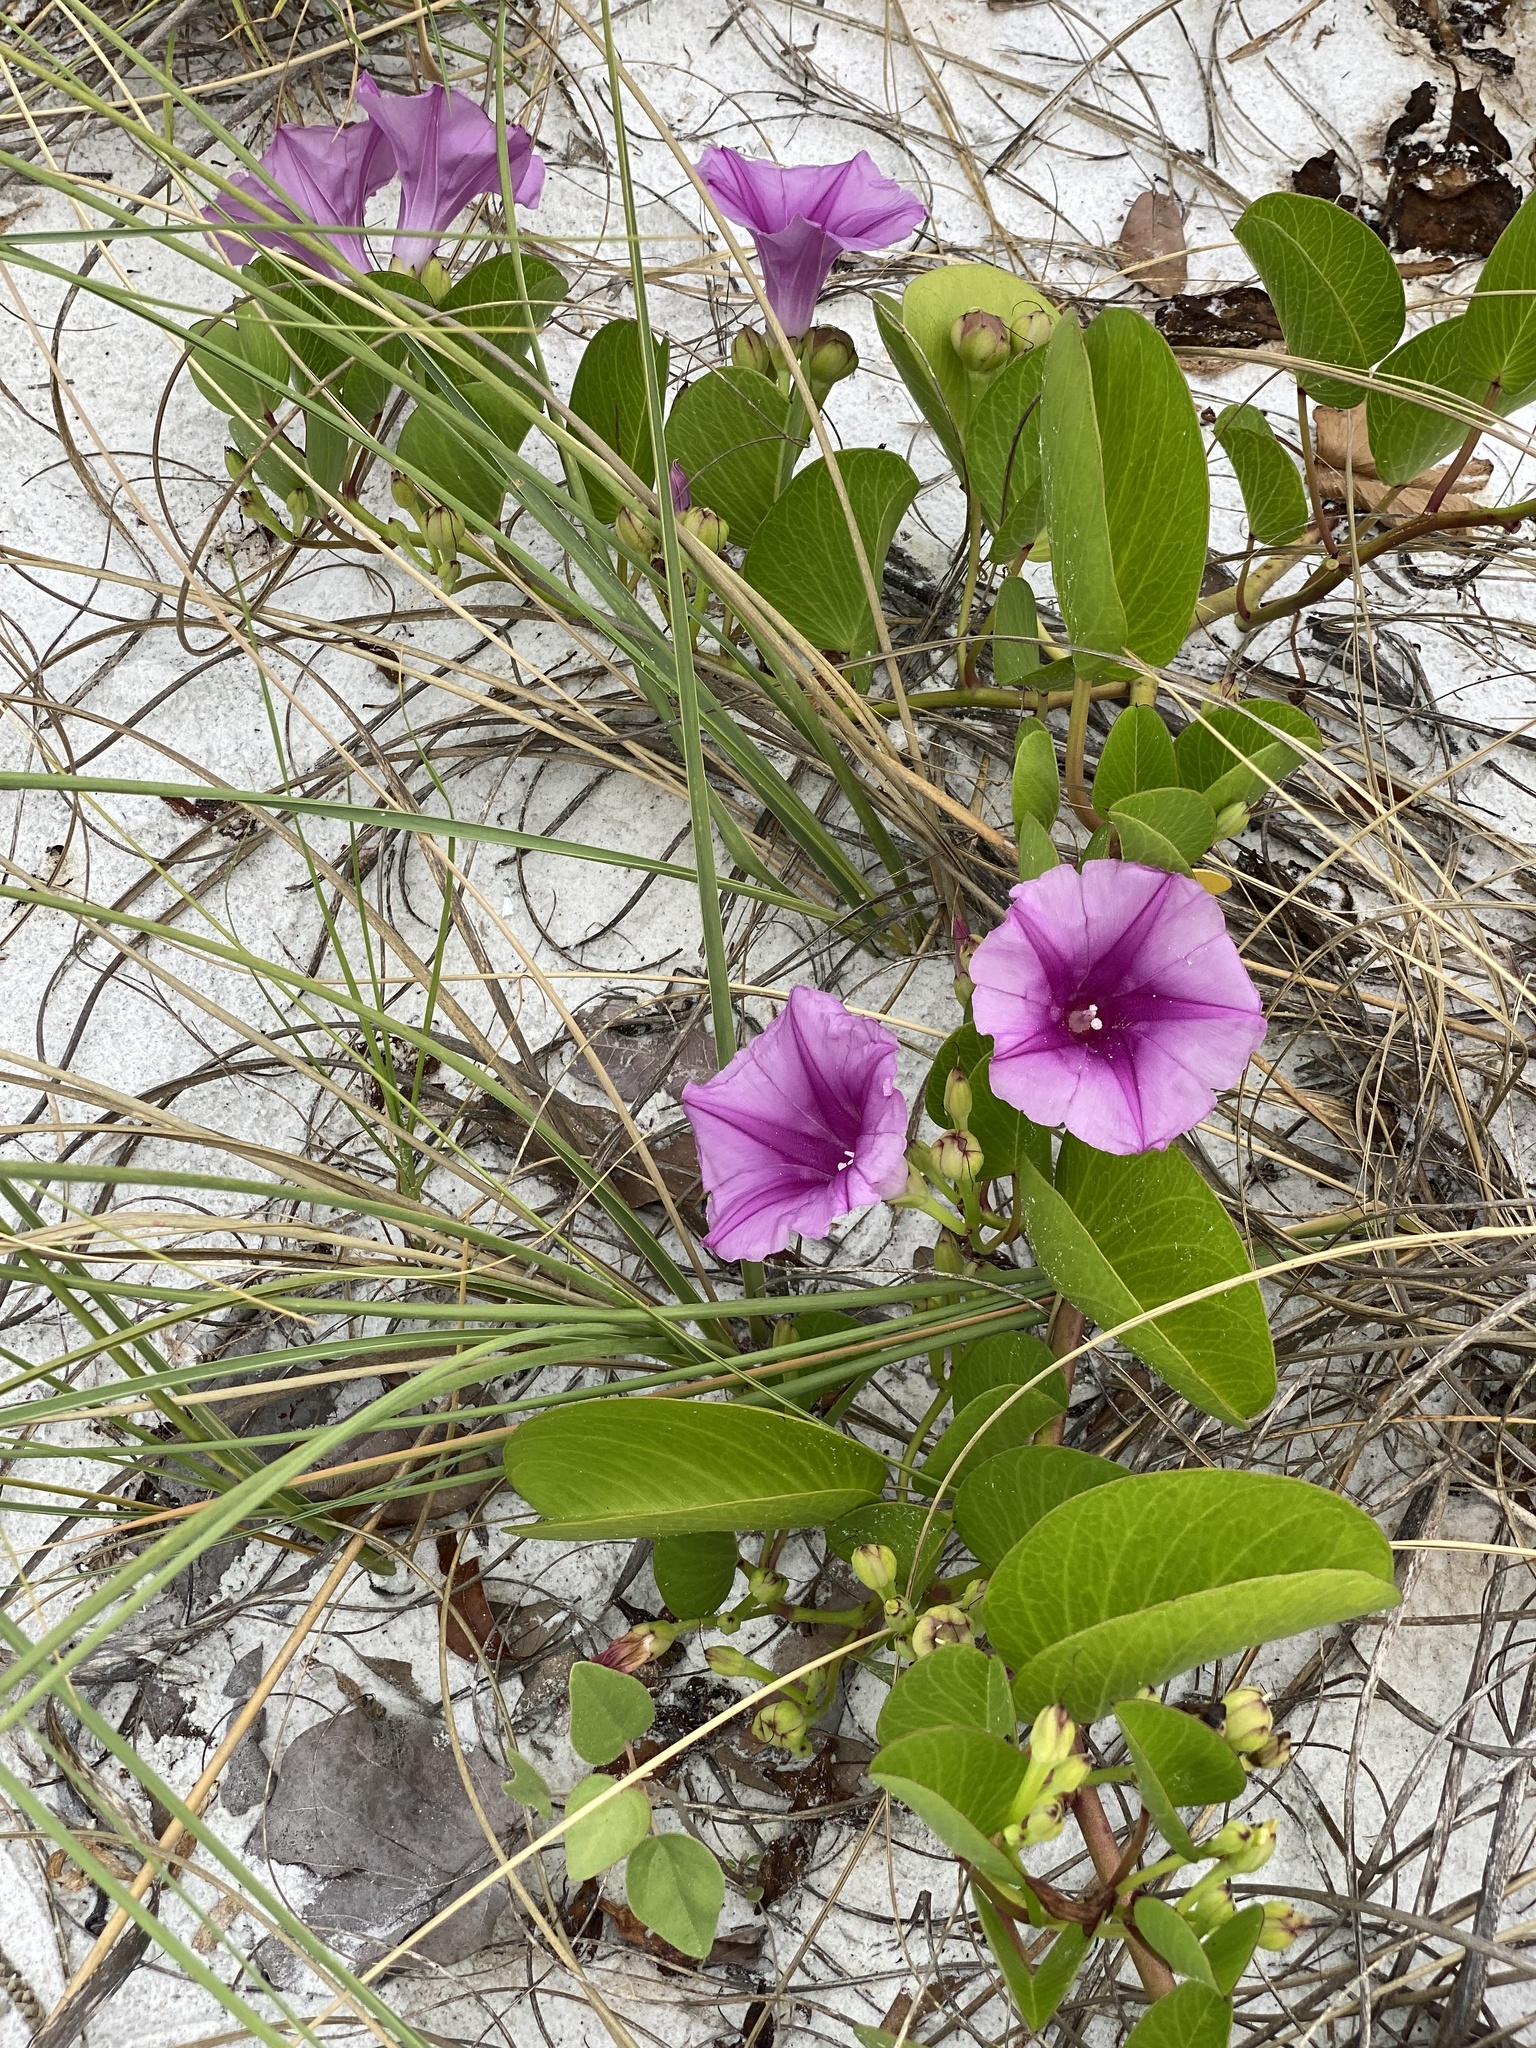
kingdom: Plantae
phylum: Tracheophyta
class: Magnoliopsida
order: Solanales
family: Convolvulaceae
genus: Ipomoea
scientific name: Ipomoea pes-caprae
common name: Beach morning glory
